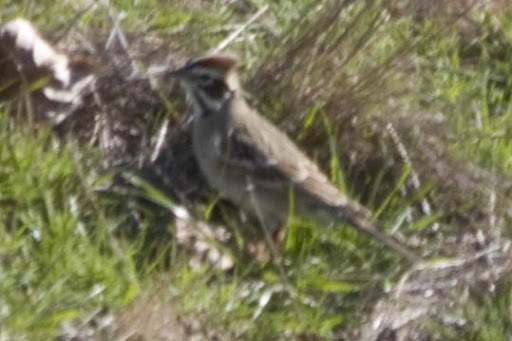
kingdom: Animalia
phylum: Chordata
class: Aves
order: Passeriformes
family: Passerellidae
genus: Chondestes
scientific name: Chondestes grammacus
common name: Lark sparrow
